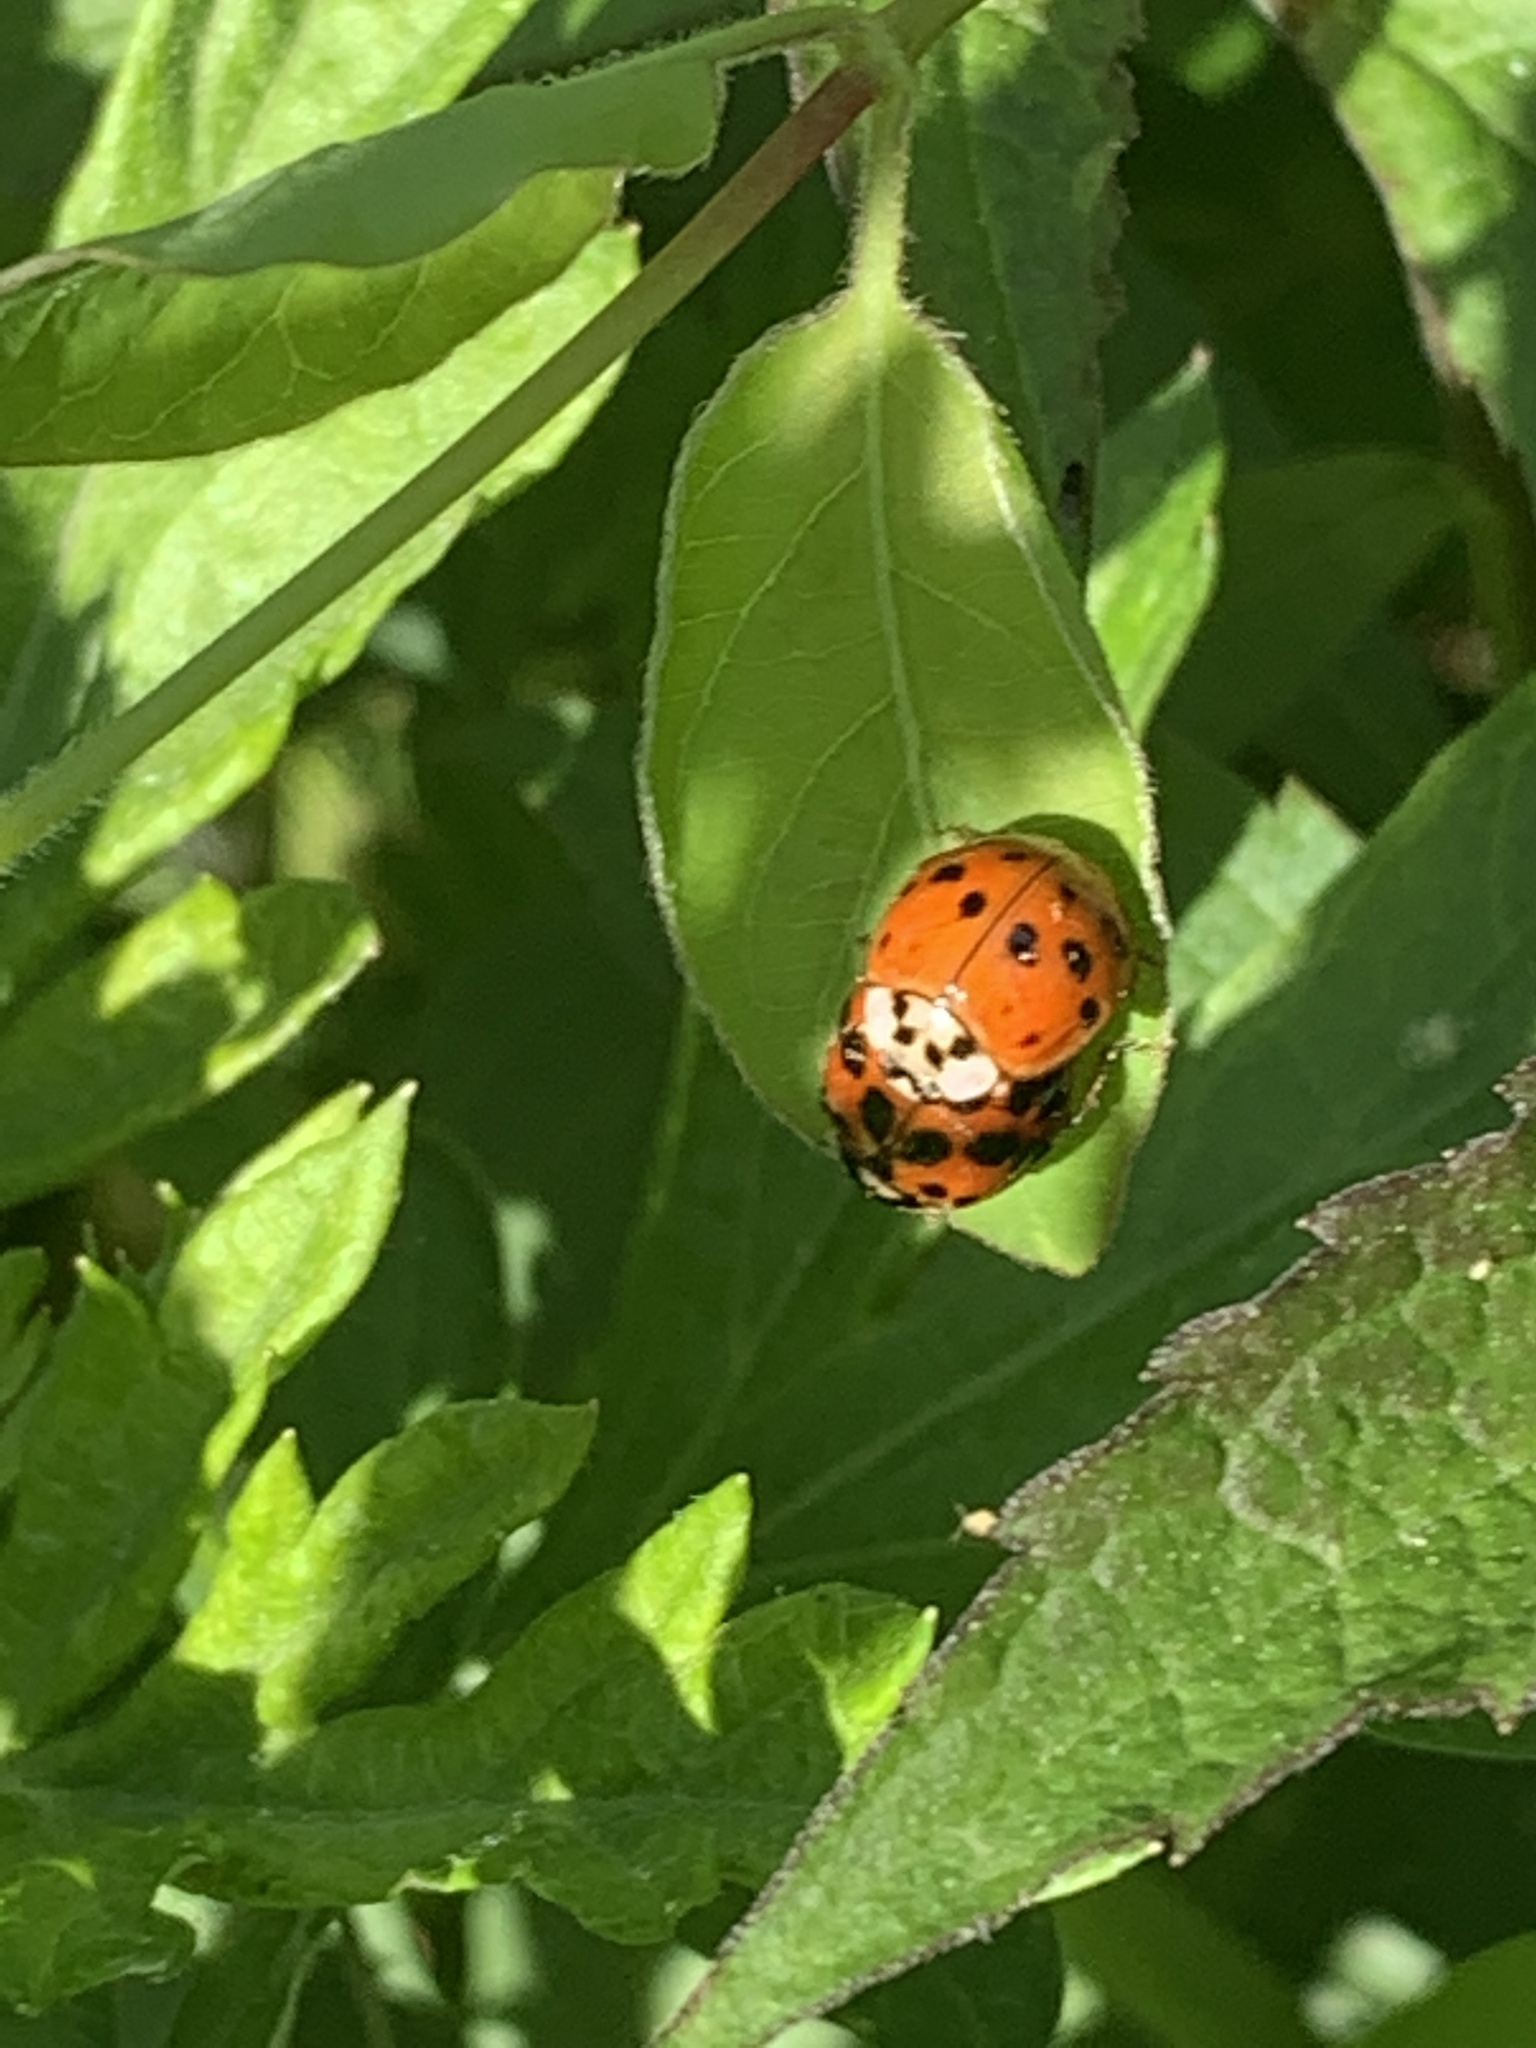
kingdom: Animalia
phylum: Arthropoda
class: Insecta
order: Coleoptera
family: Coccinellidae
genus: Harmonia
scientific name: Harmonia axyridis
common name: Harlequin ladybird
